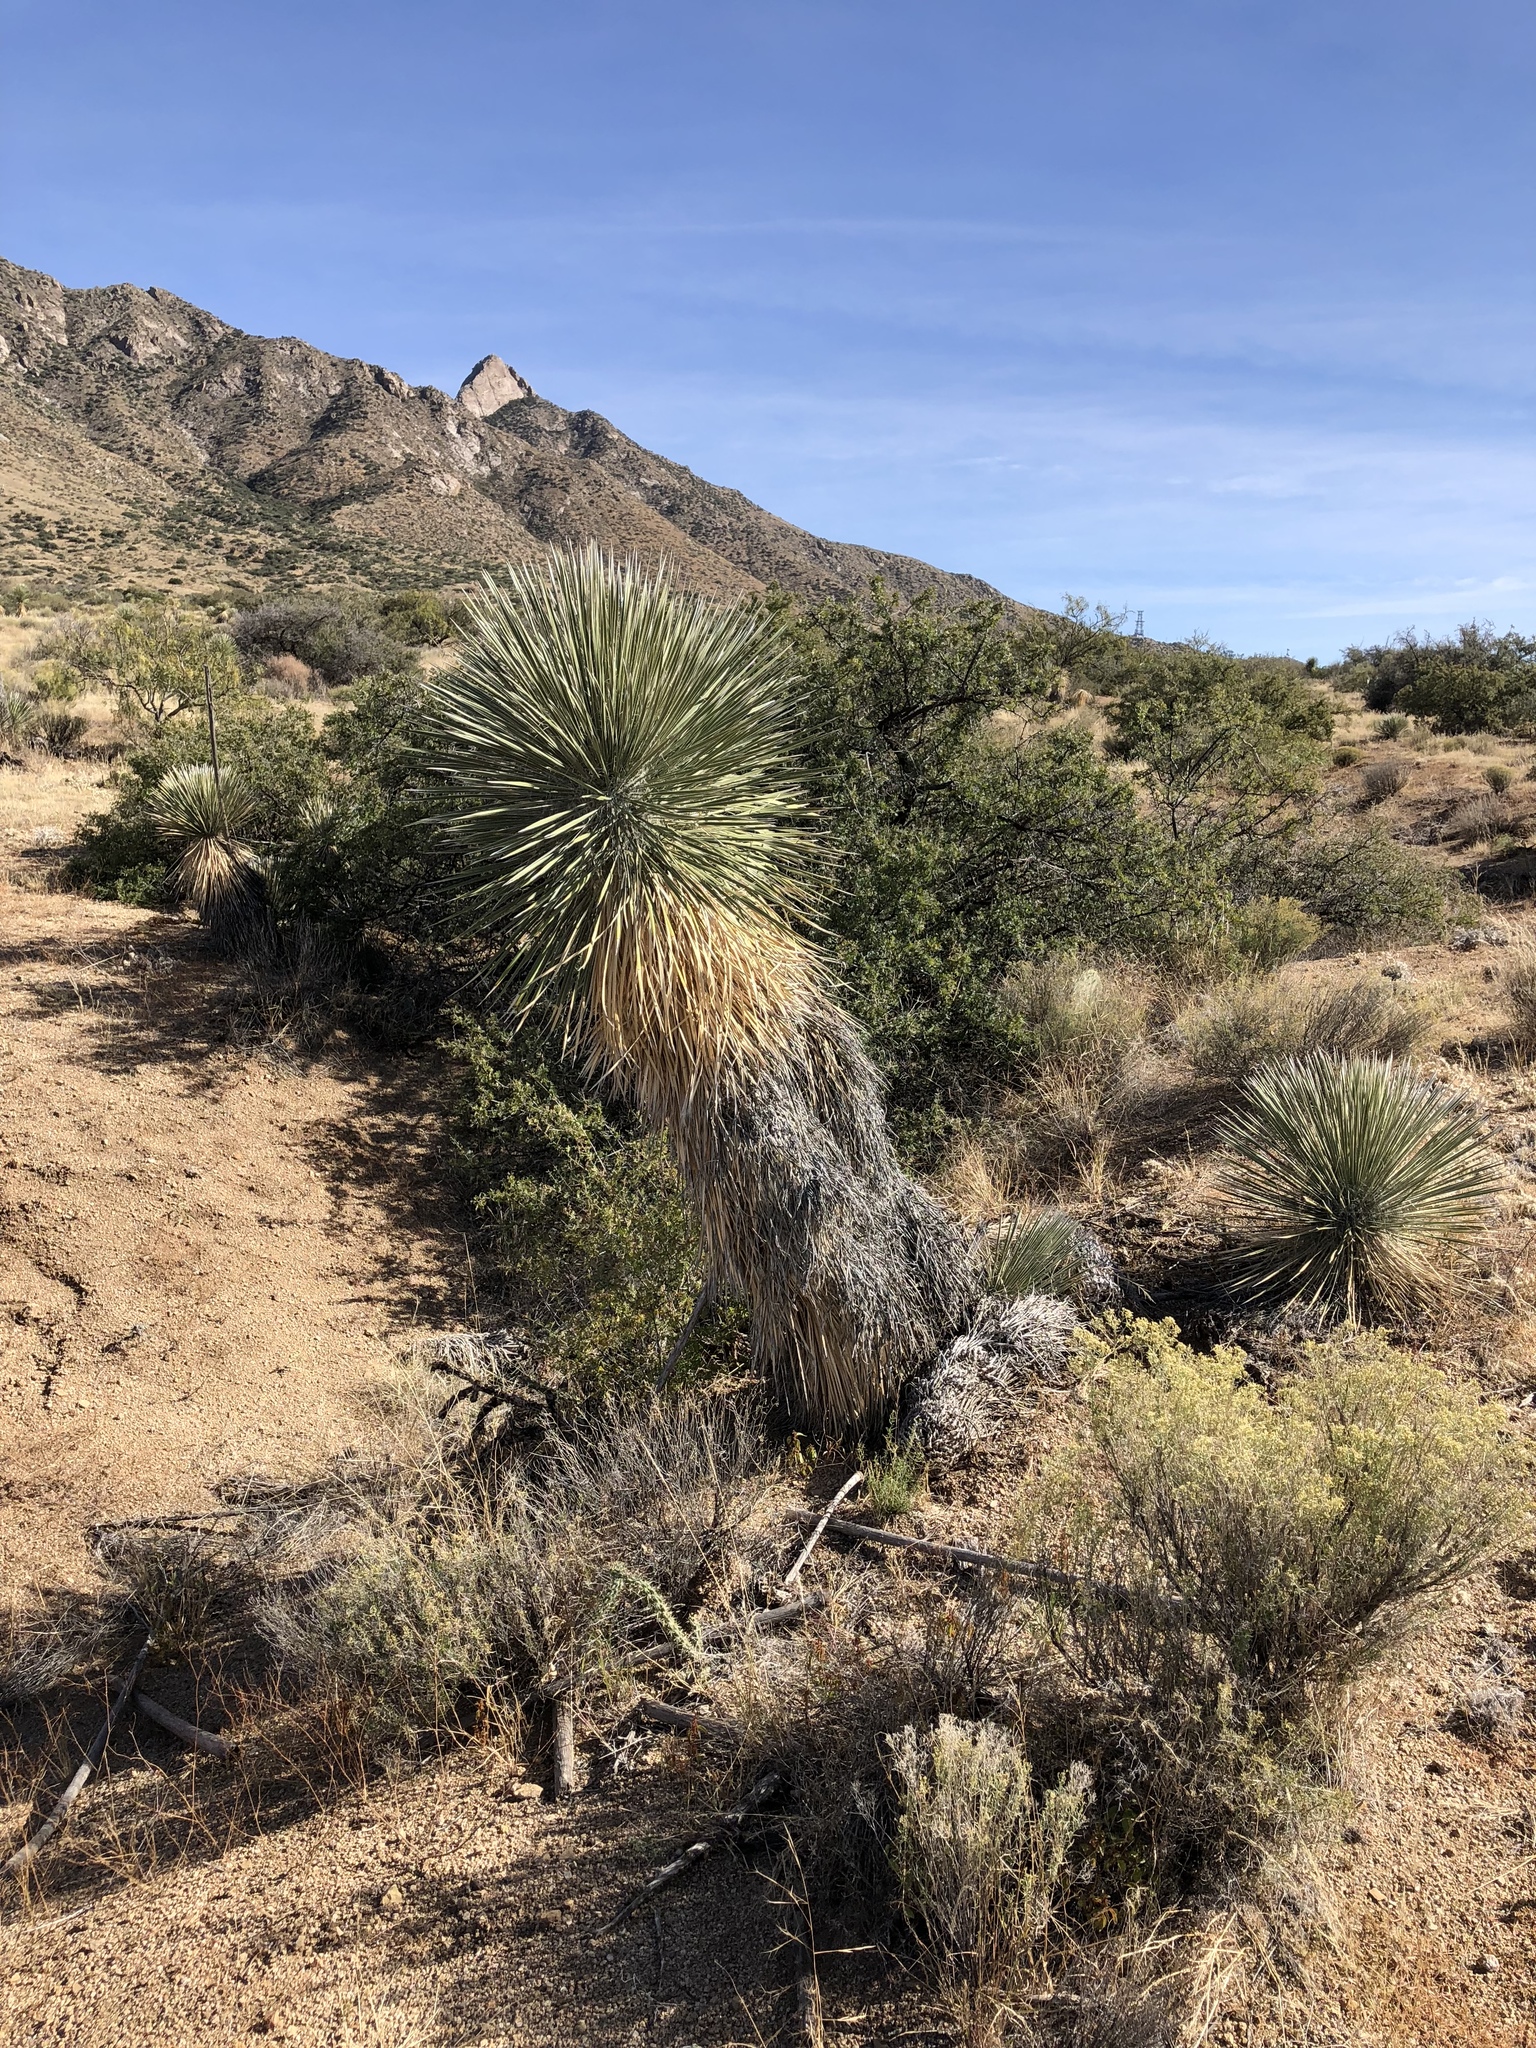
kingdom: Plantae
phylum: Tracheophyta
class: Liliopsida
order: Asparagales
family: Asparagaceae
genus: Yucca
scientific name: Yucca elata
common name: Palmella
